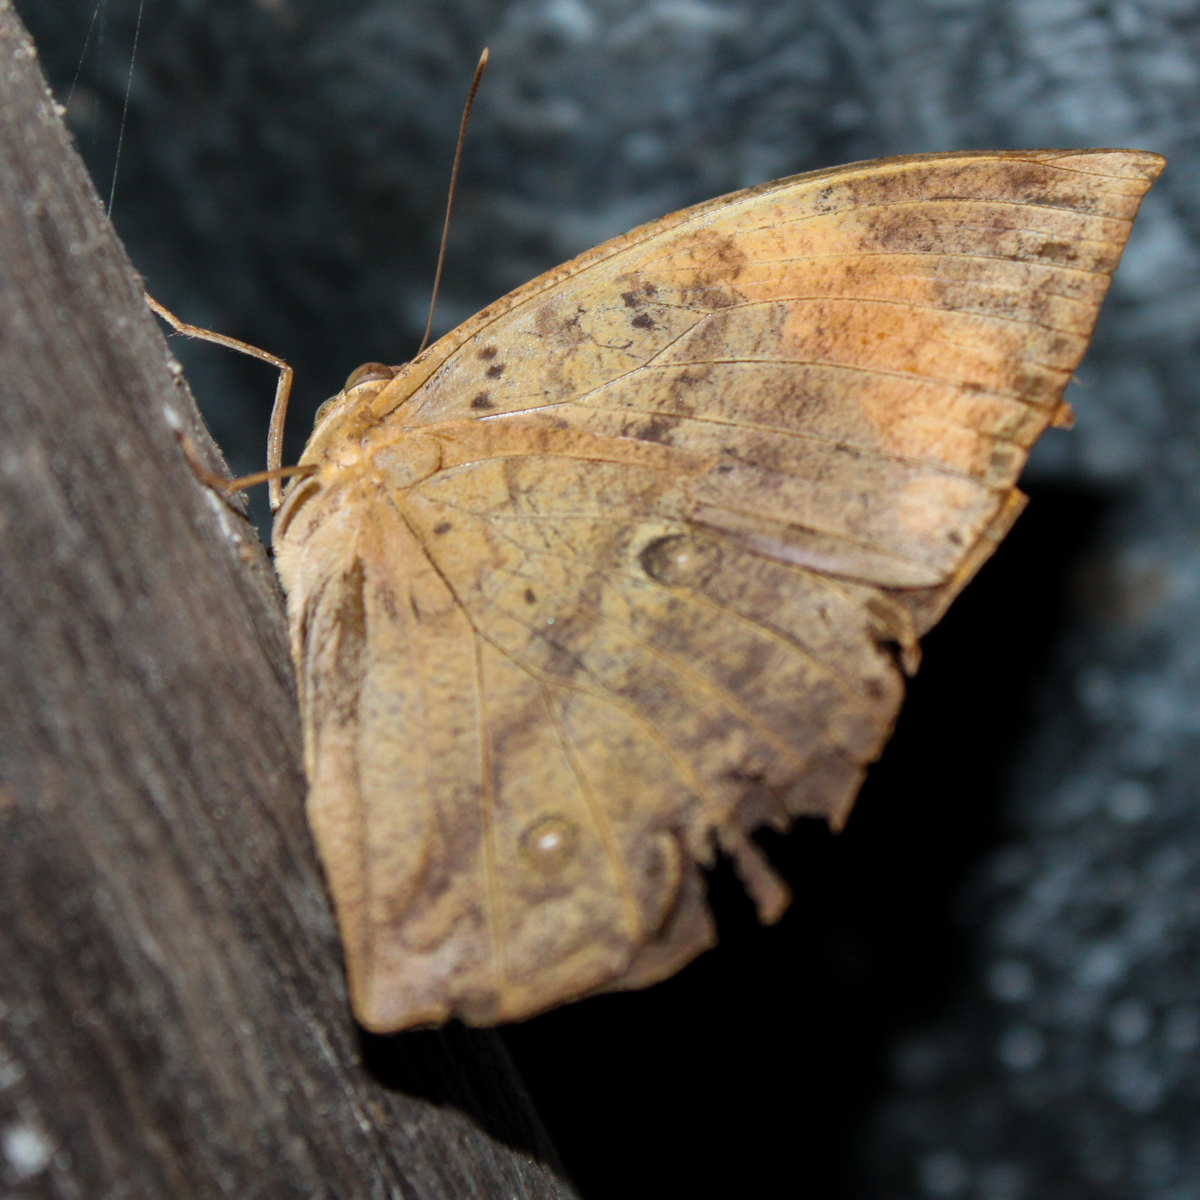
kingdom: Animalia
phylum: Arthropoda
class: Insecta
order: Lepidoptera
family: Nymphalidae
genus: Discophora
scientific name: Discophora timora
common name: Great duffer
